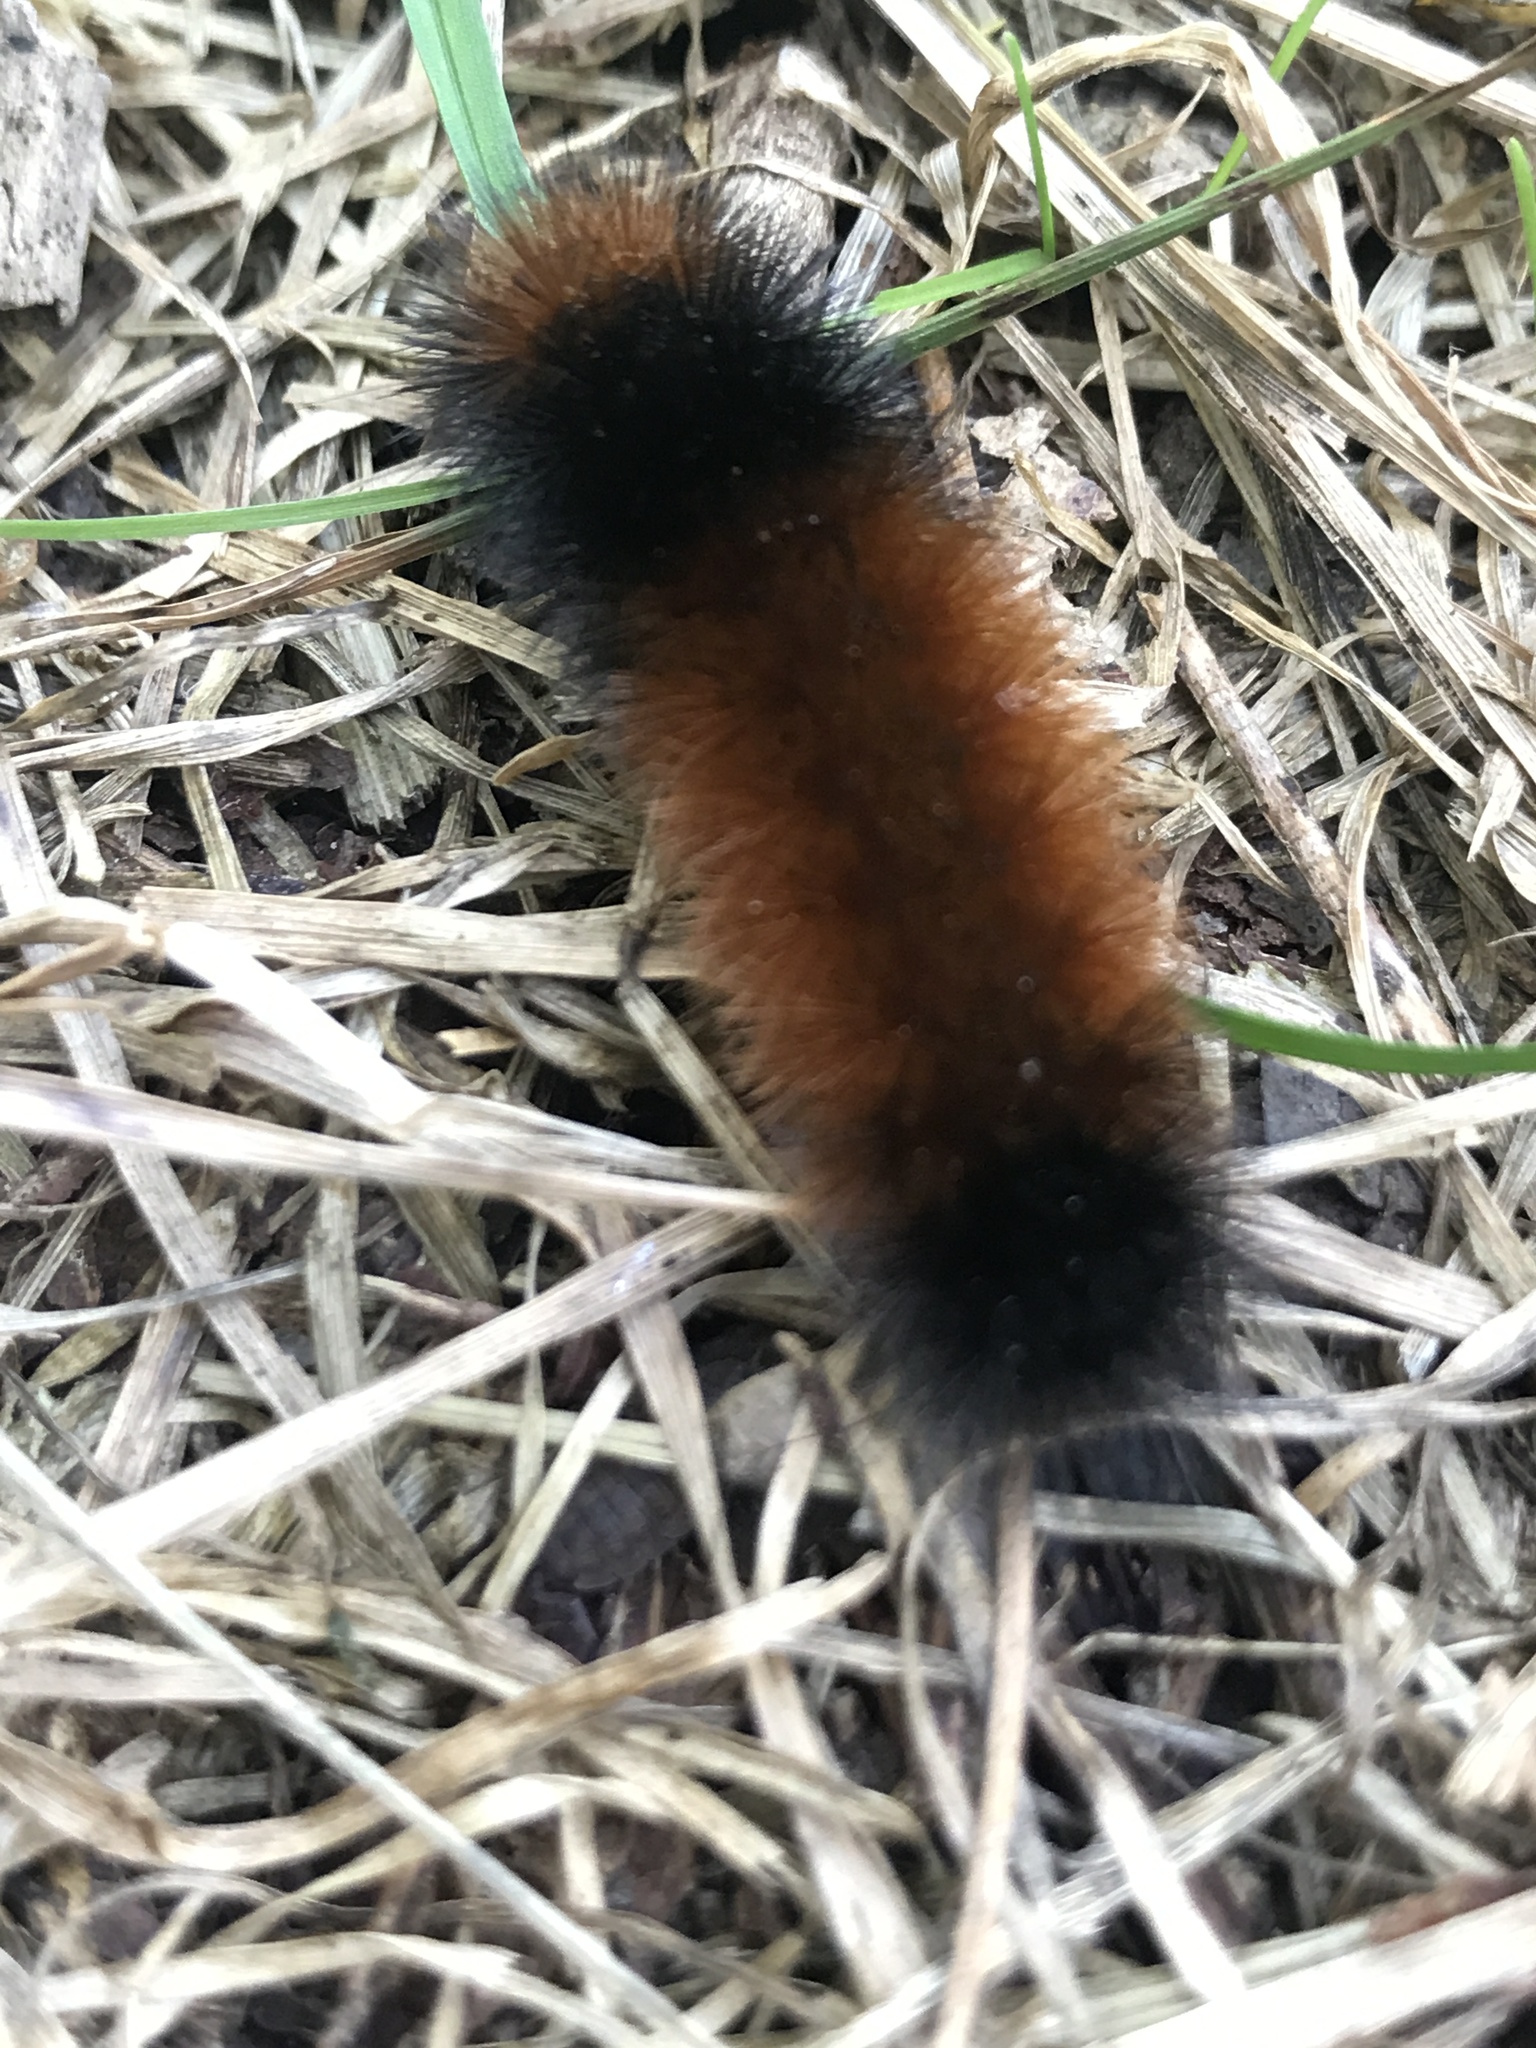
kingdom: Animalia
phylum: Arthropoda
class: Insecta
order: Lepidoptera
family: Erebidae
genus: Pyrrharctia
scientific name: Pyrrharctia isabella
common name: Isabella tiger moth
